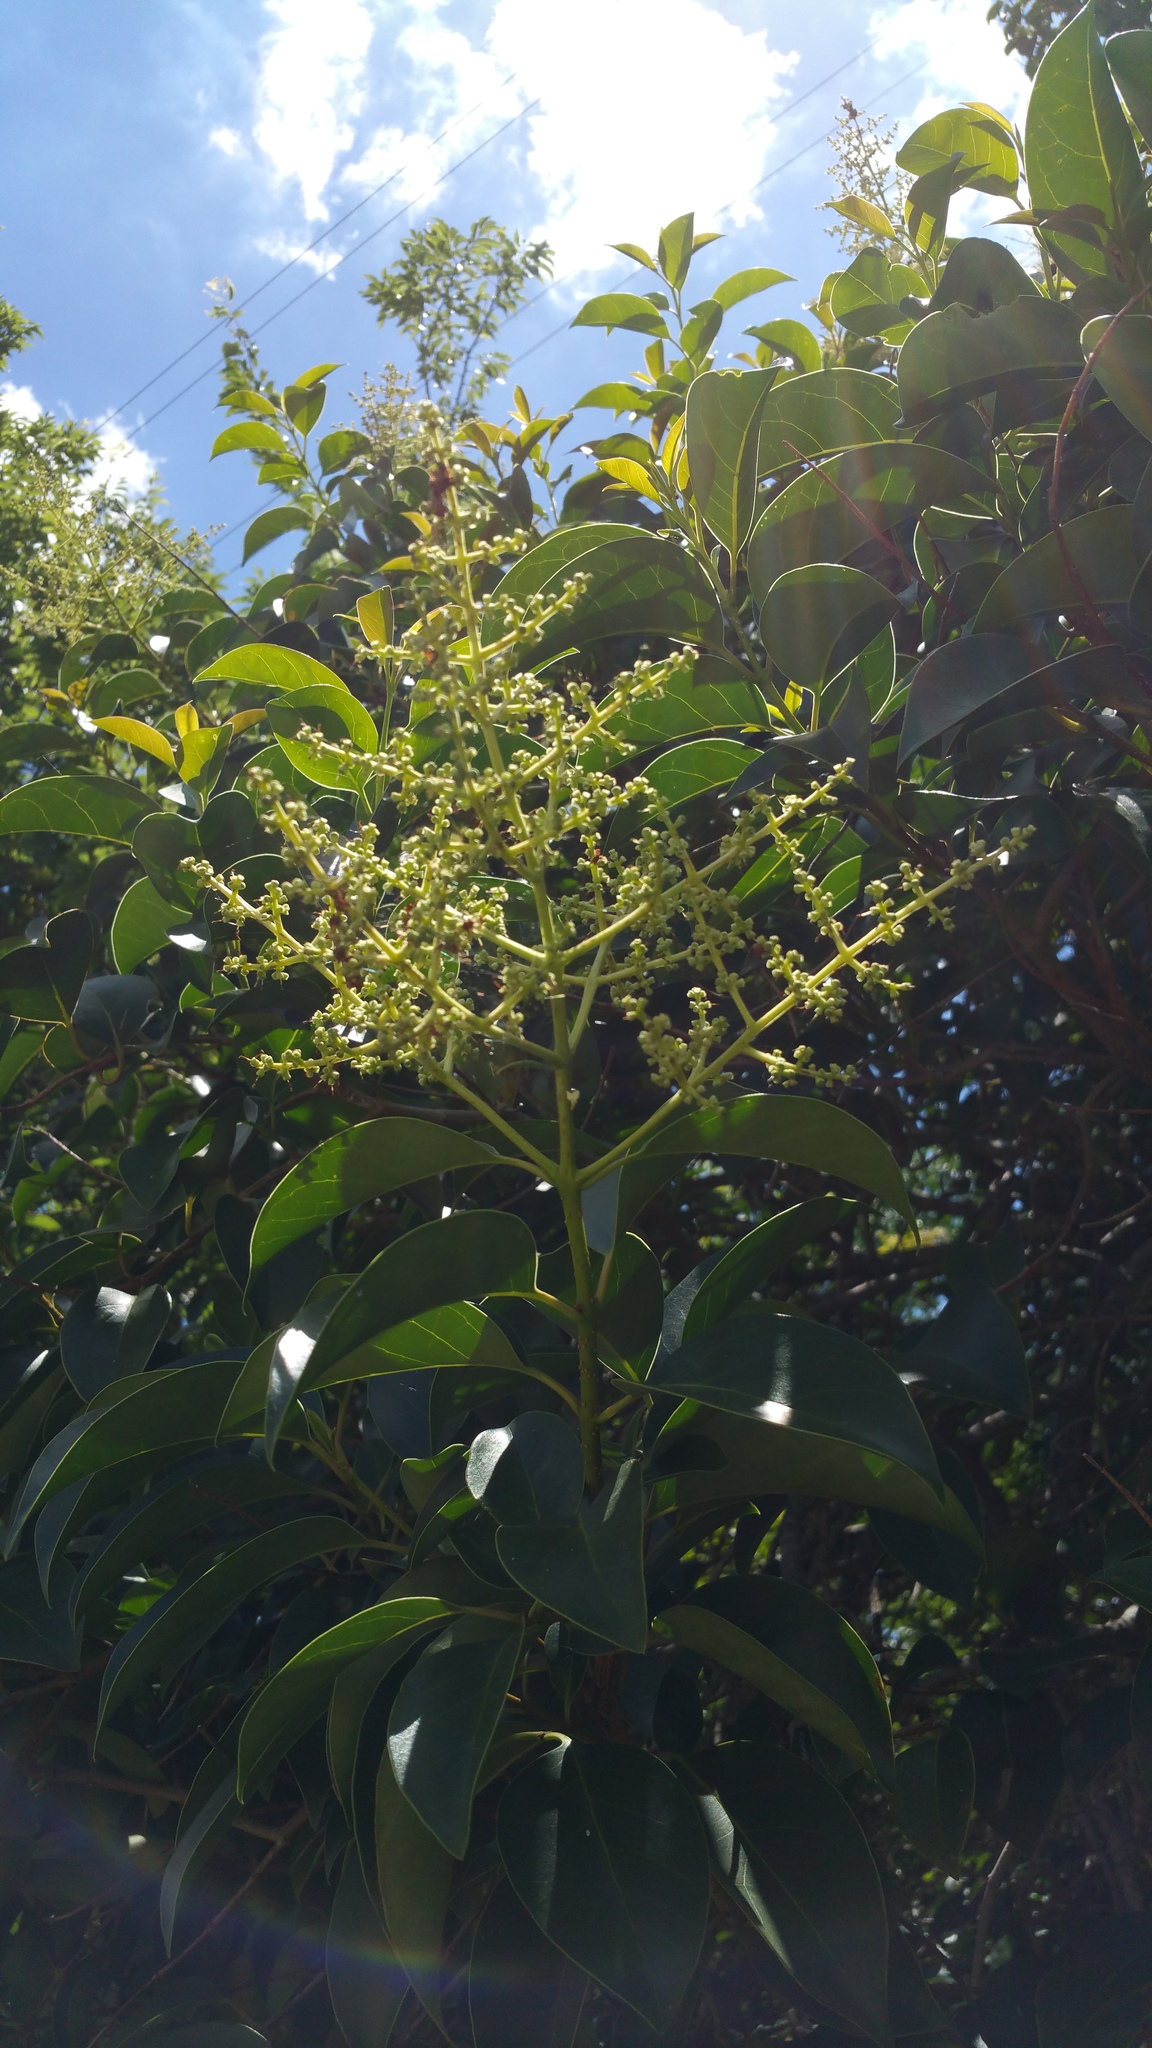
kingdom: Plantae
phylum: Tracheophyta
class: Magnoliopsida
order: Lamiales
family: Oleaceae
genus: Ligustrum
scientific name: Ligustrum lucidum
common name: Glossy privet
